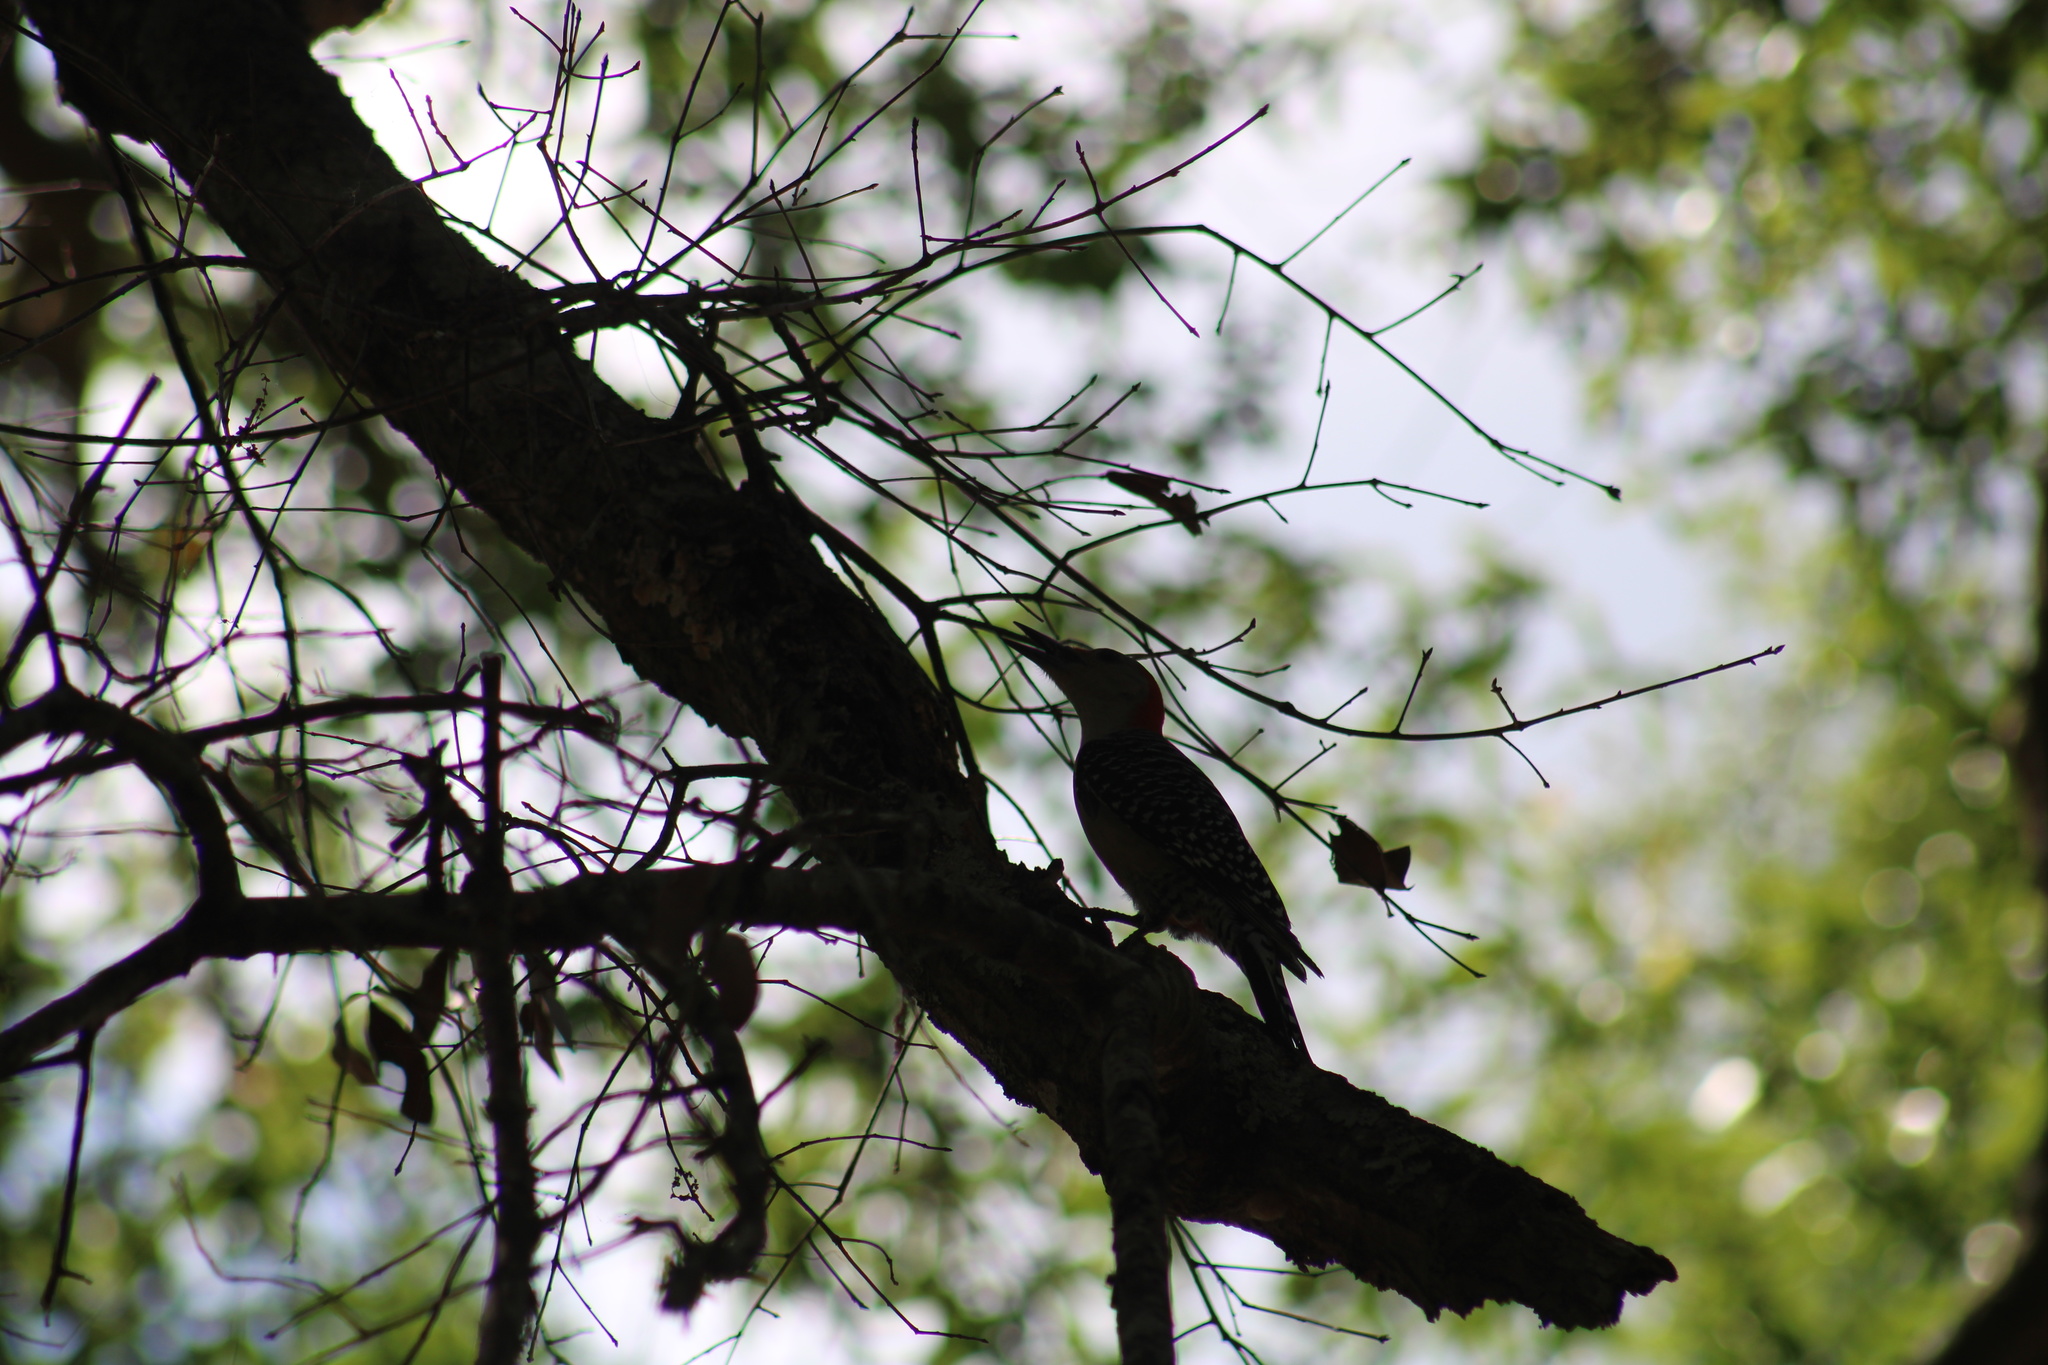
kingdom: Animalia
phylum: Chordata
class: Aves
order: Piciformes
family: Picidae
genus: Melanerpes
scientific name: Melanerpes carolinus
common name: Red-bellied woodpecker
